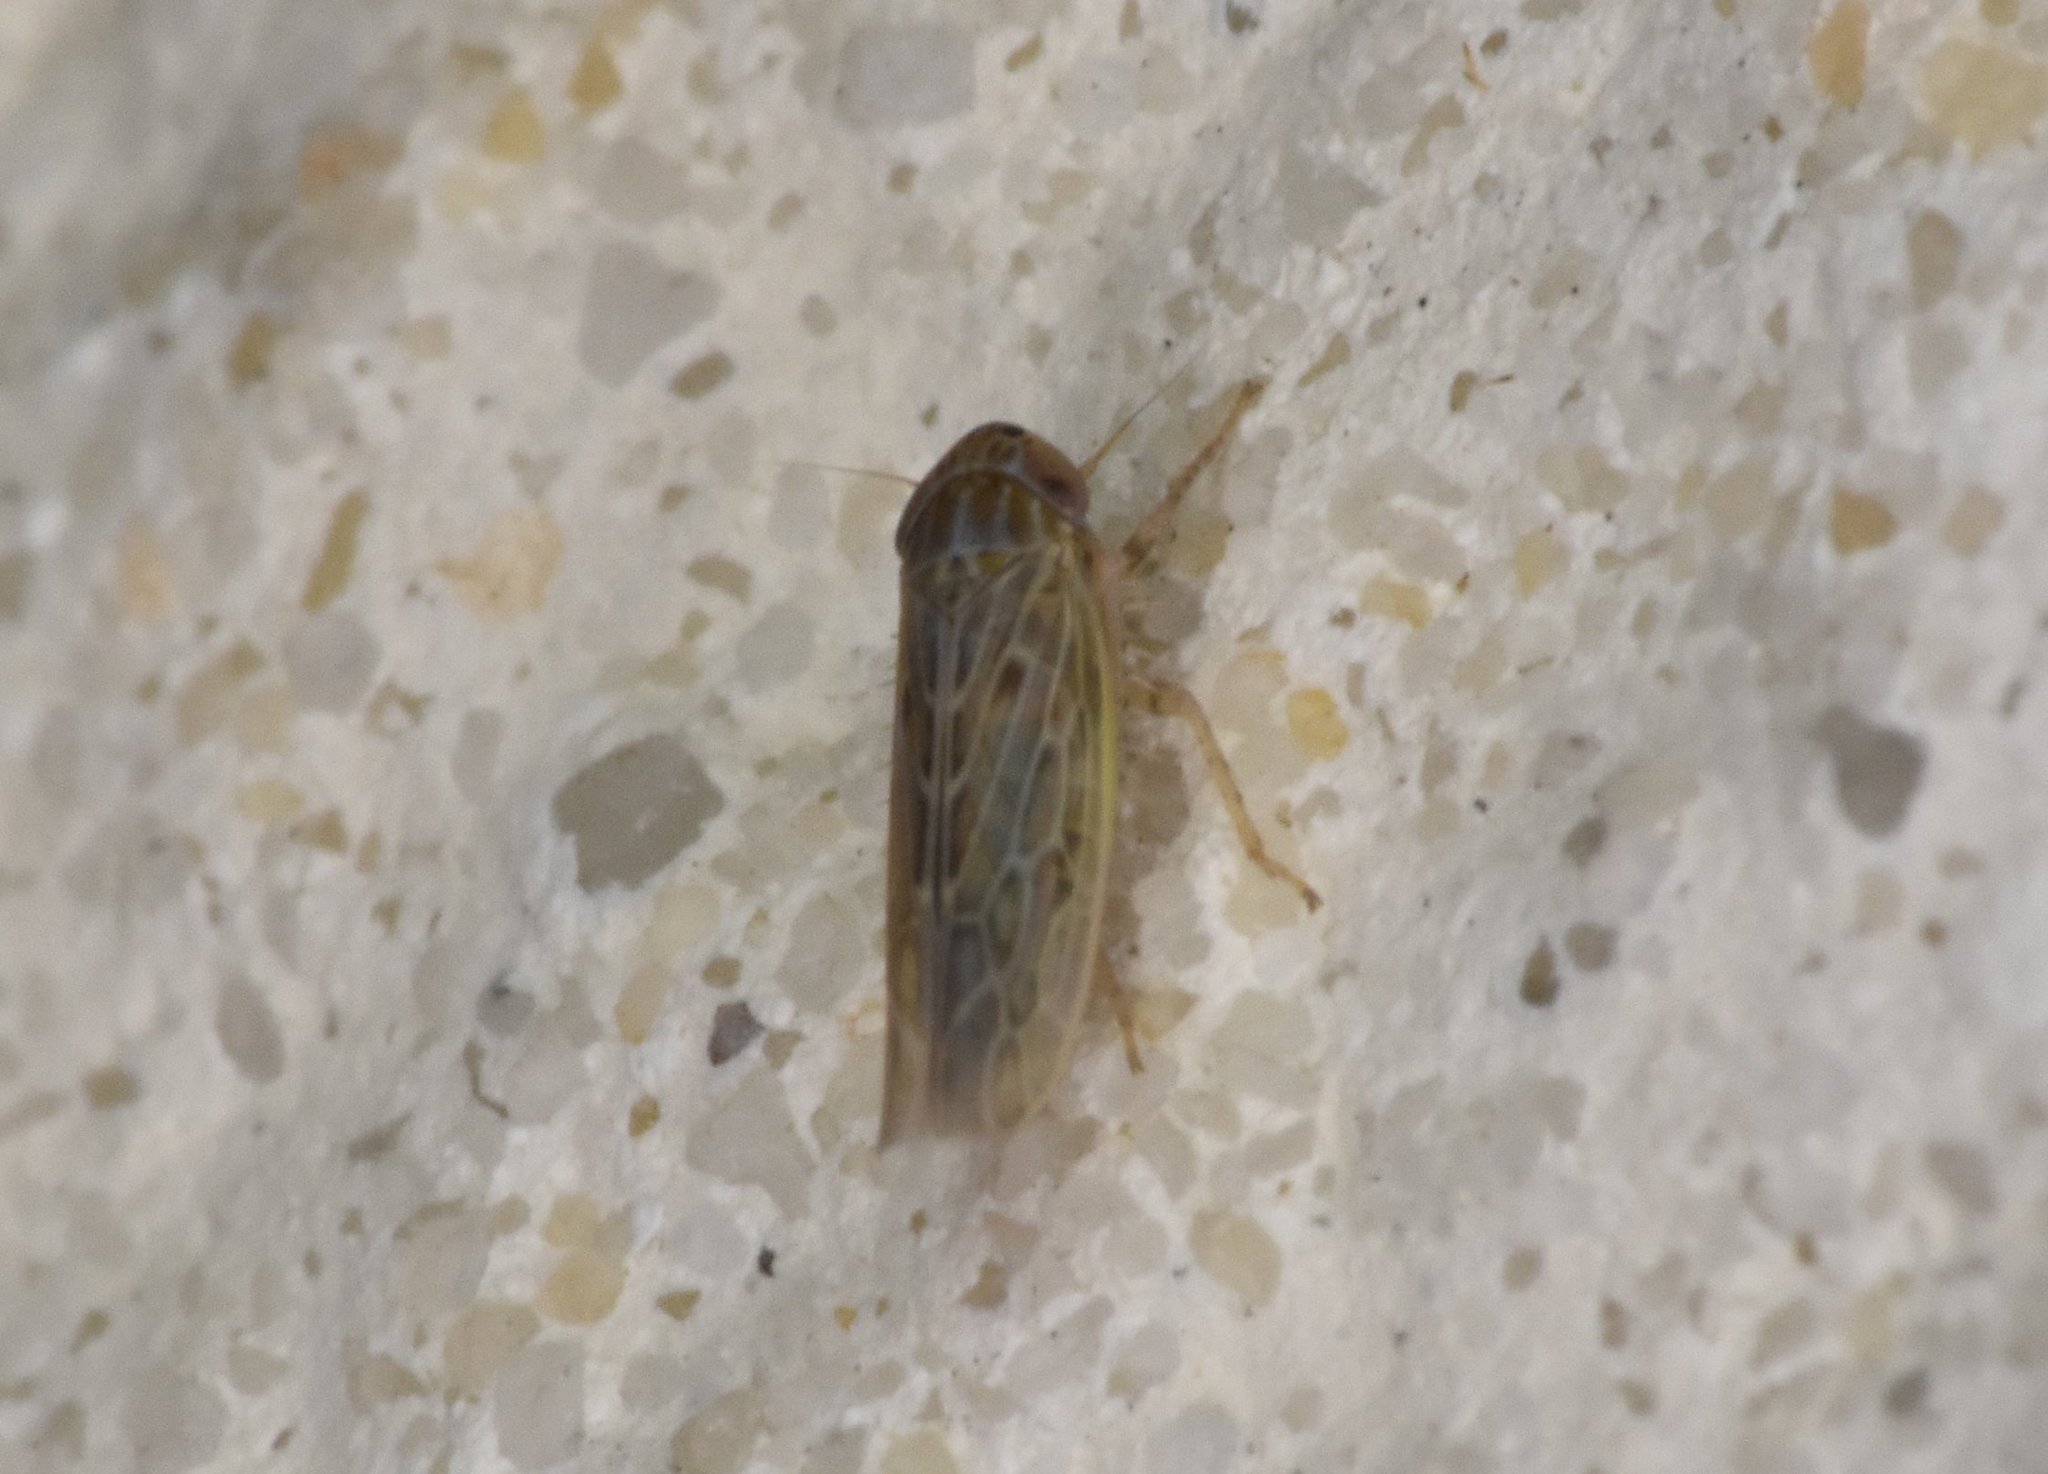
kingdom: Animalia
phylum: Arthropoda
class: Insecta
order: Hemiptera
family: Cicadellidae
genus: Graminella
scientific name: Graminella sonora
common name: Lesser lawn leafhopper
